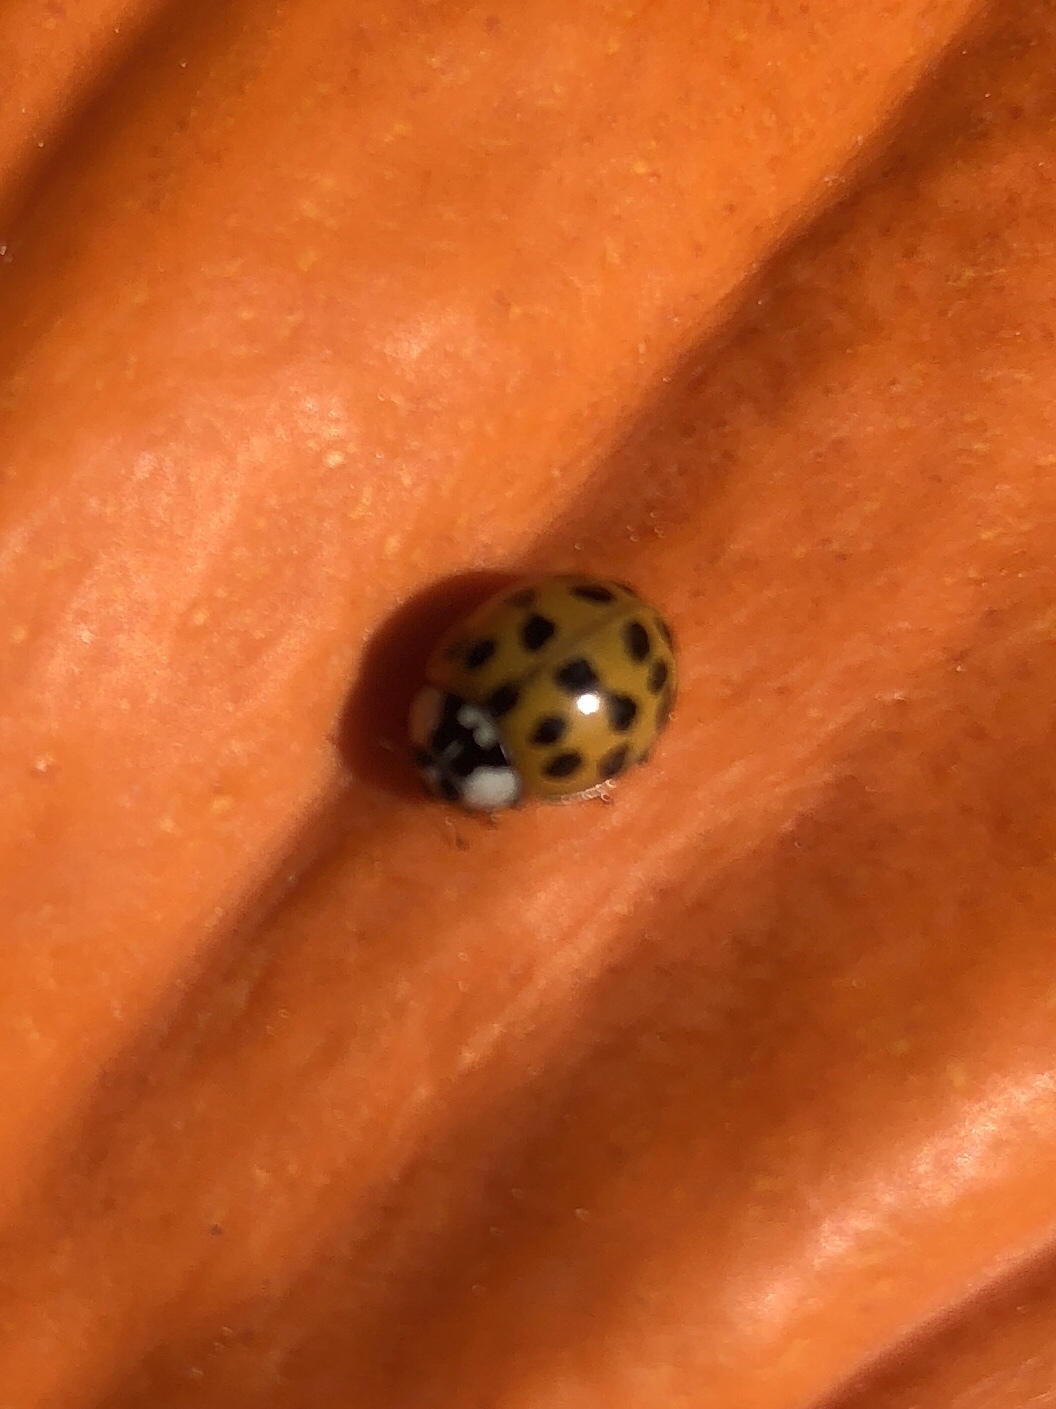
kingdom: Animalia
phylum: Arthropoda
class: Insecta
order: Coleoptera
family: Coccinellidae
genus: Harmonia
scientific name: Harmonia axyridis
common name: Harlequin ladybird
